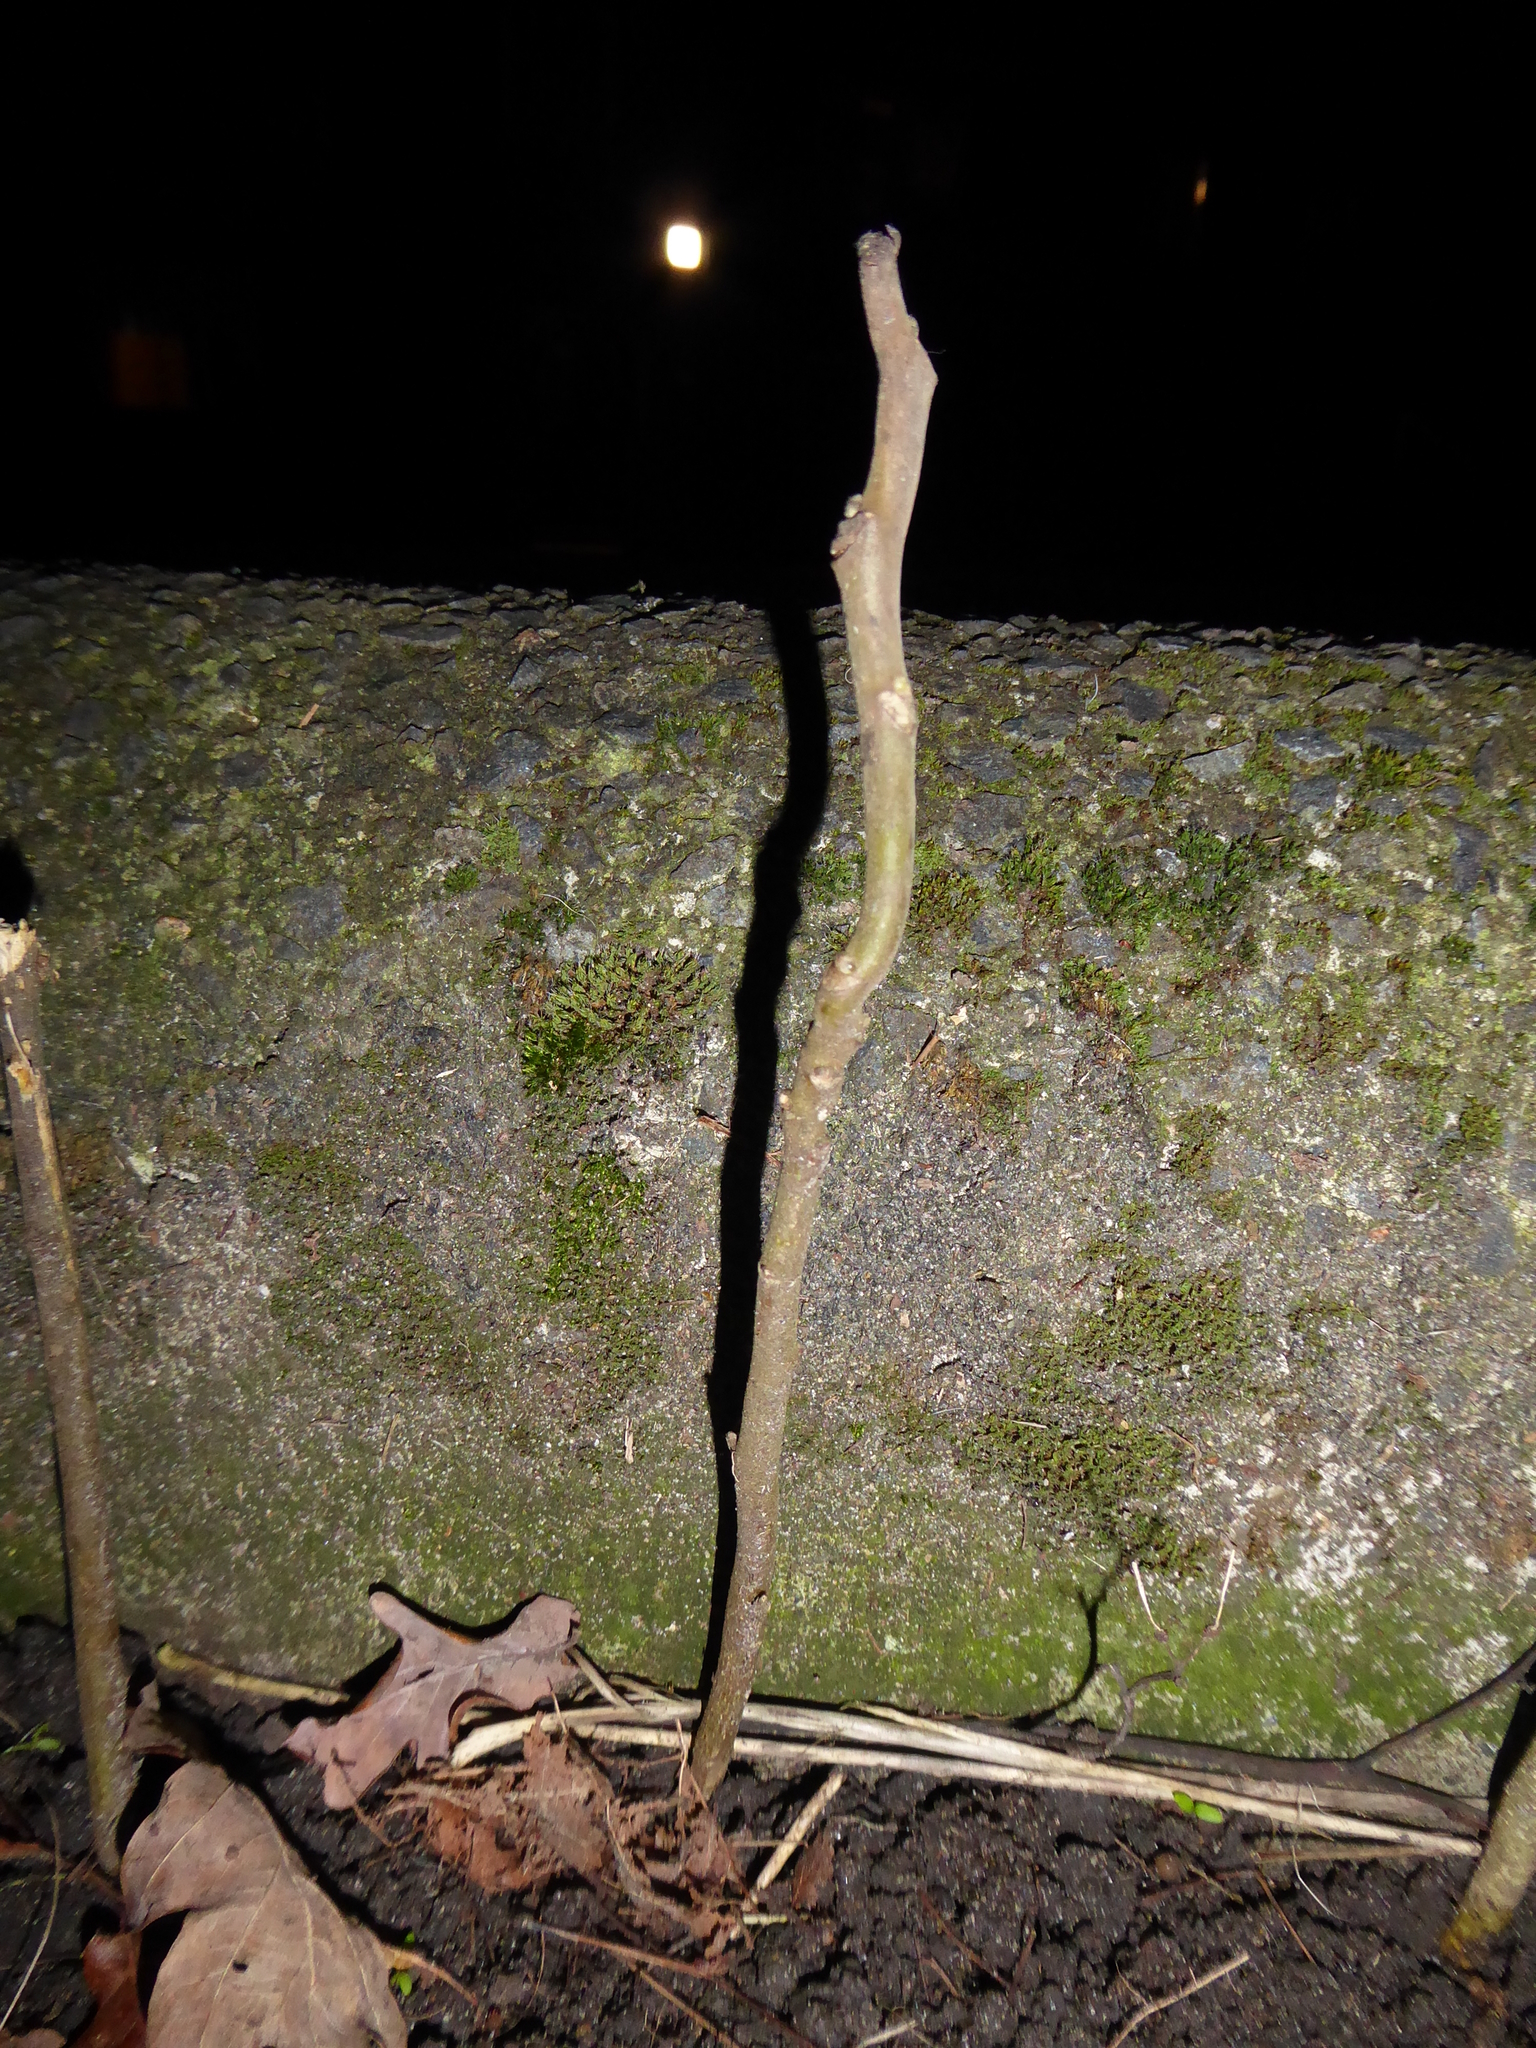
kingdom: Plantae
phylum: Tracheophyta
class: Magnoliopsida
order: Sapindales
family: Simaroubaceae
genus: Ailanthus
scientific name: Ailanthus altissima
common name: Tree-of-heaven
